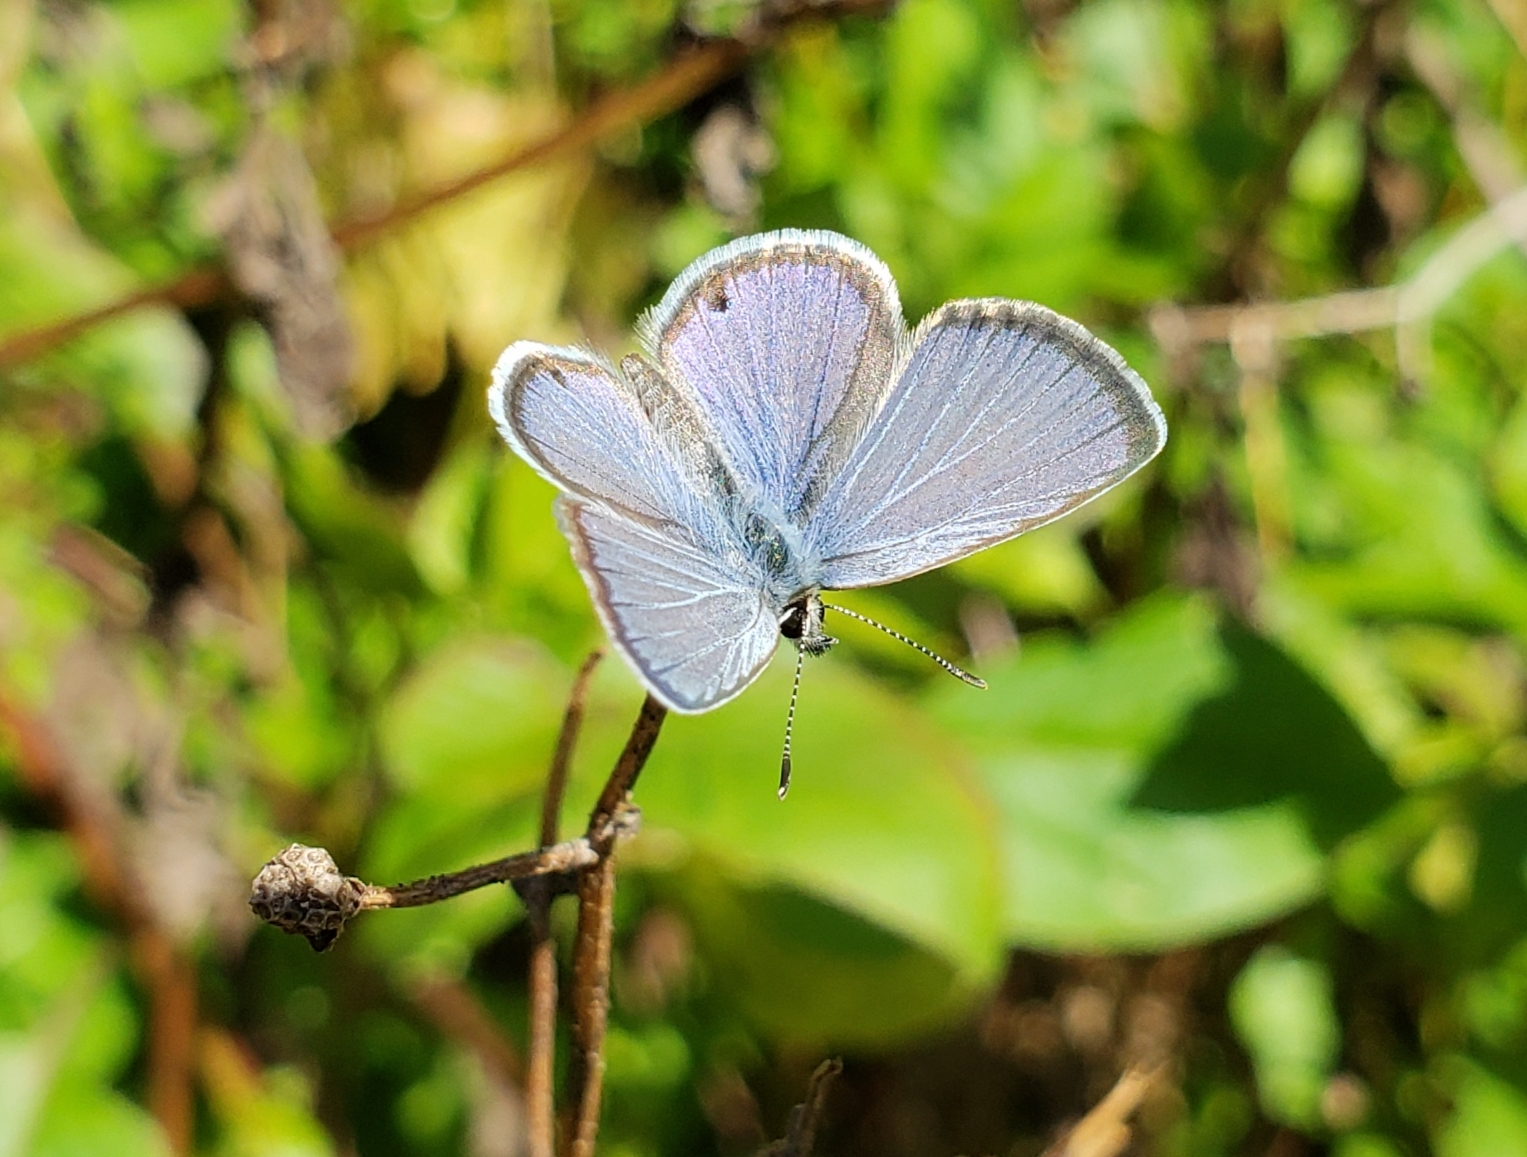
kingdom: Animalia
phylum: Arthropoda
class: Insecta
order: Lepidoptera
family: Lycaenidae
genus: Hemiargus
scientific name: Hemiargus ceraunus
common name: Ceraunus blue
